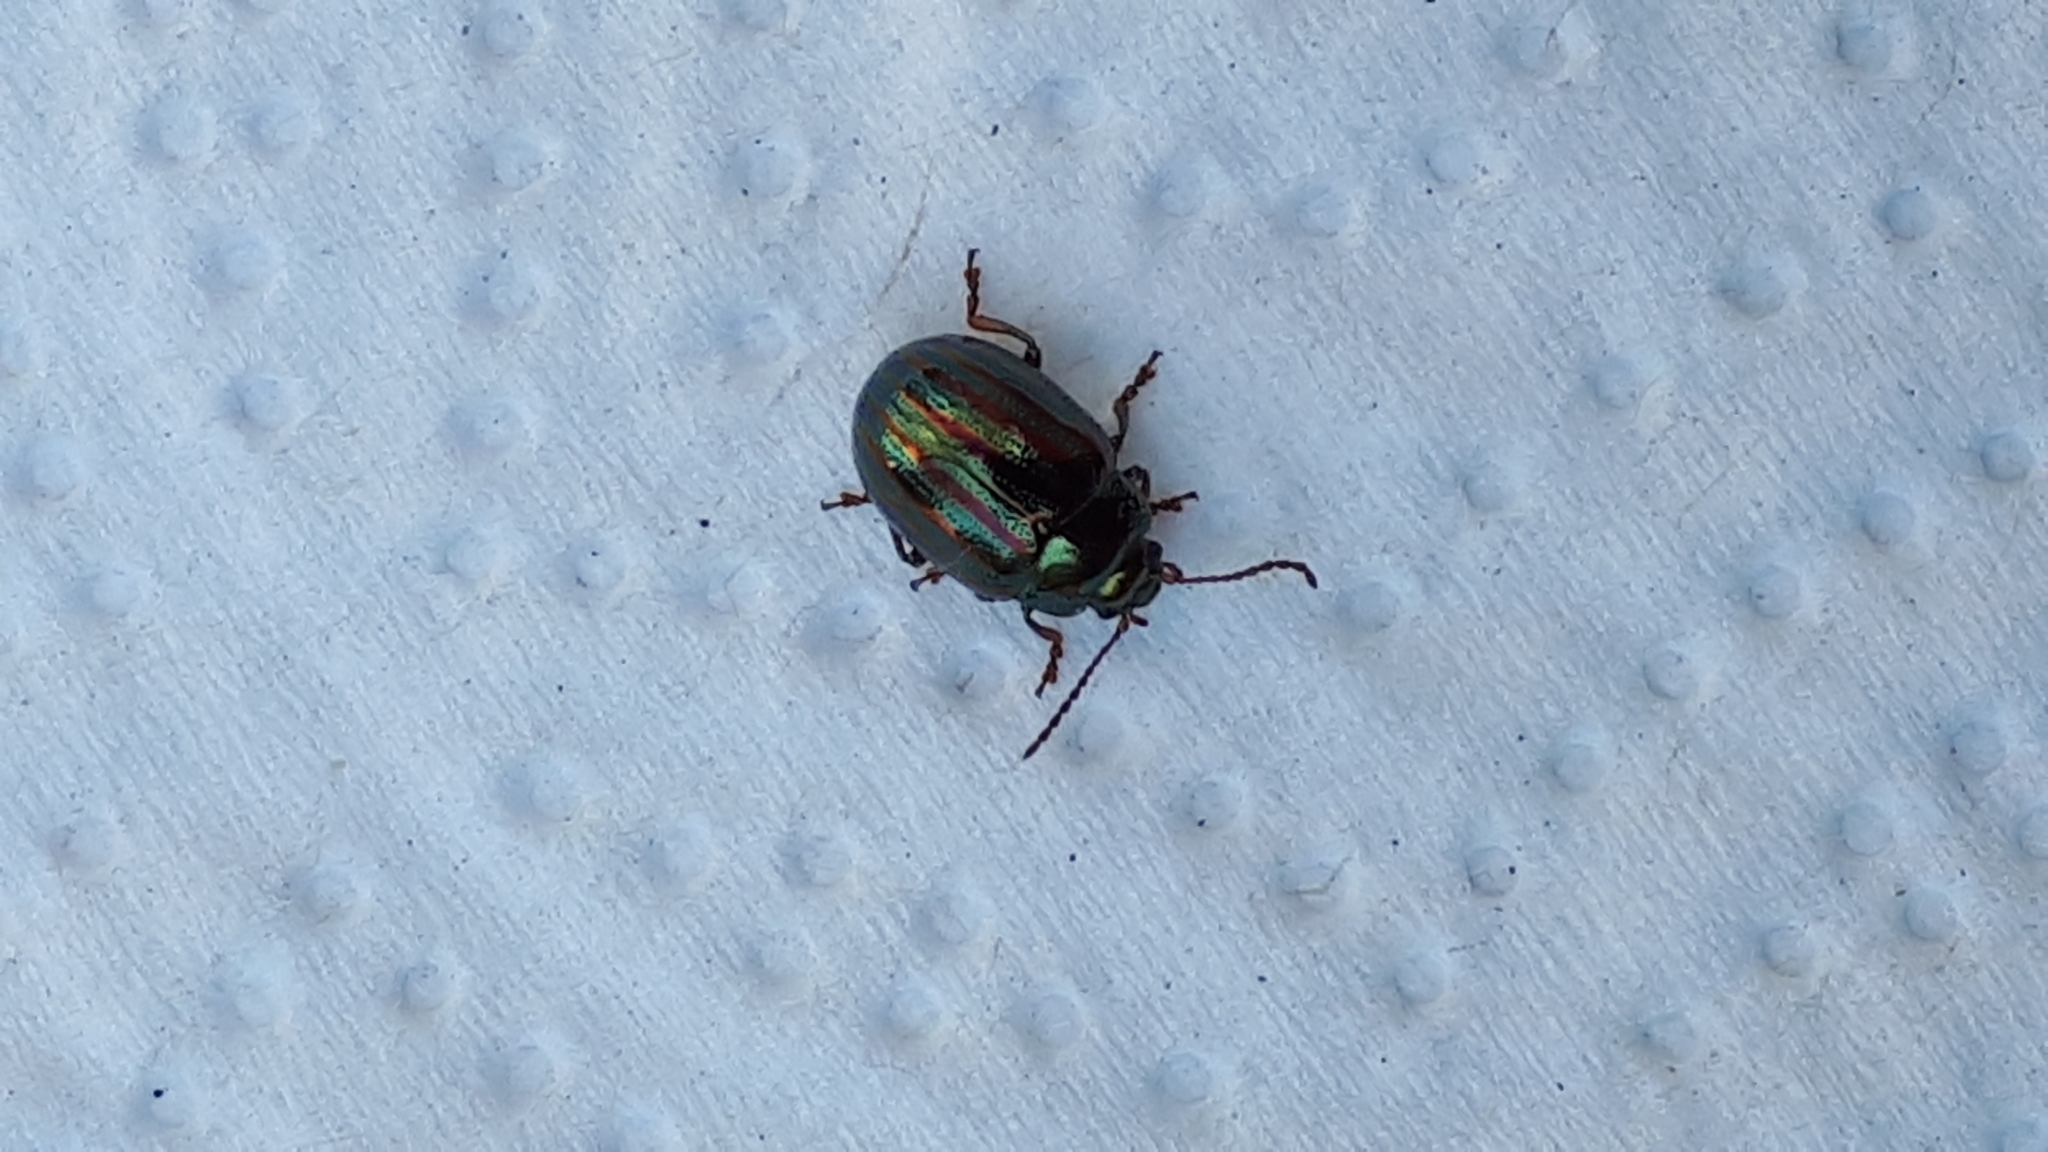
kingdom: Animalia
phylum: Arthropoda
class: Insecta
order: Coleoptera
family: Chrysomelidae
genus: Chrysolina
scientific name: Chrysolina americana
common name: Rosemary beetle
